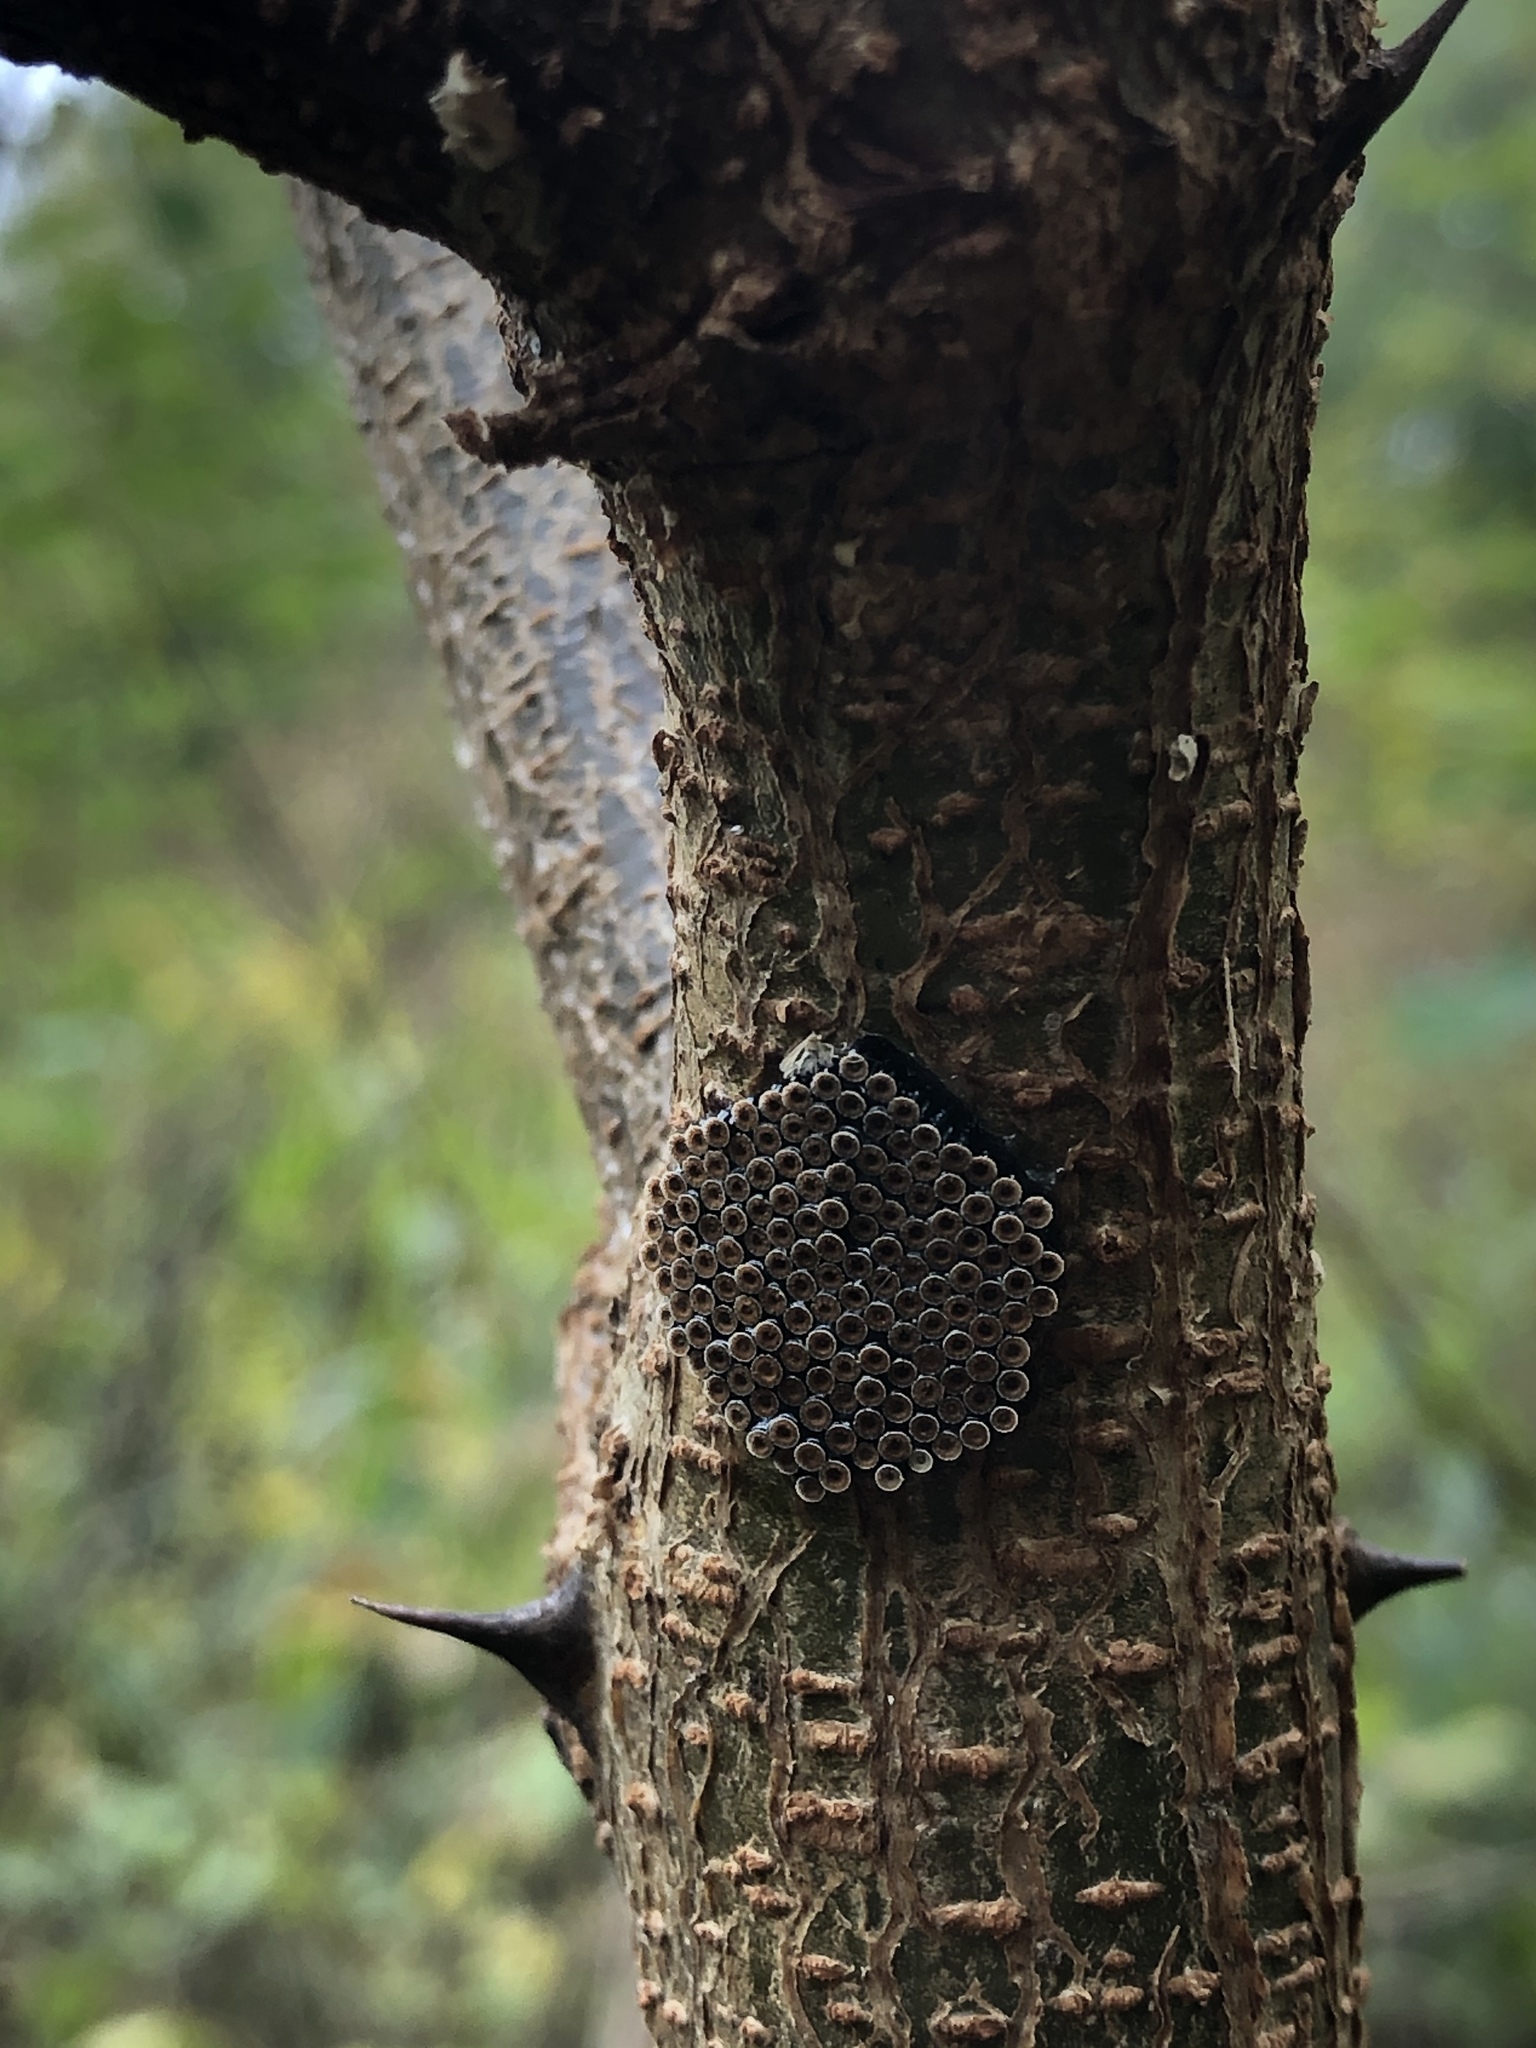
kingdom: Animalia
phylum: Arthropoda
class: Insecta
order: Hemiptera
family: Reduviidae
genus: Arilus
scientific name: Arilus cristatus
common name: North american wheel bug
